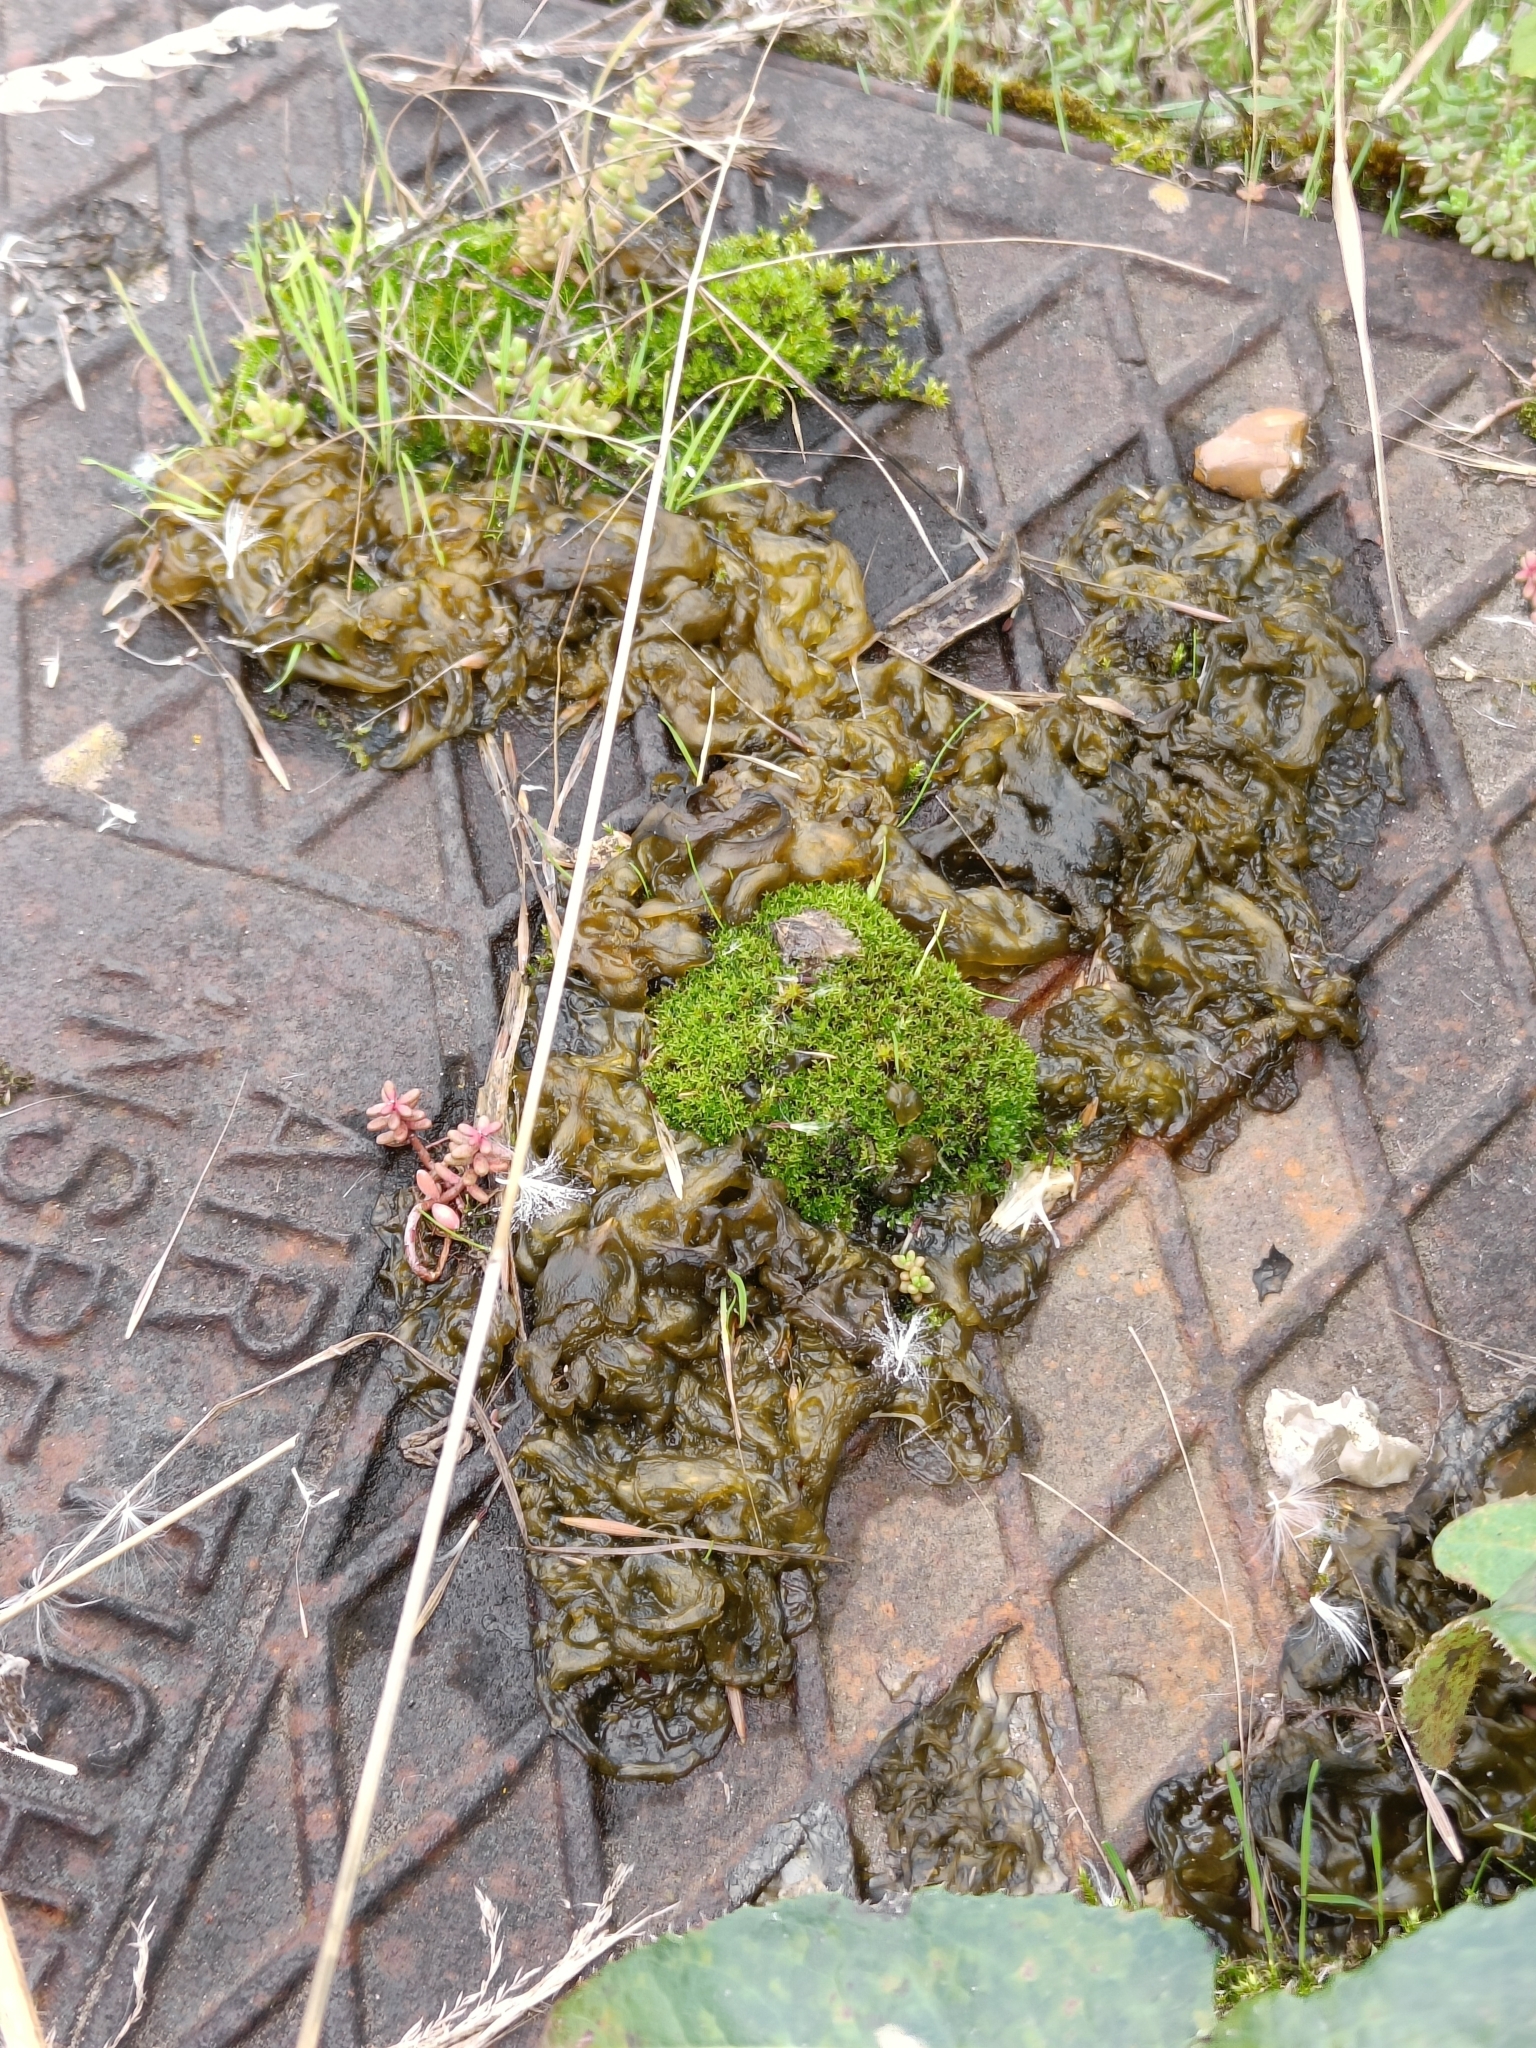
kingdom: Bacteria
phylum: Cyanobacteria
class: Cyanobacteriia
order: Cyanobacteriales
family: Nostocaceae
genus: Nostoc
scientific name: Nostoc commune
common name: Star jelly
